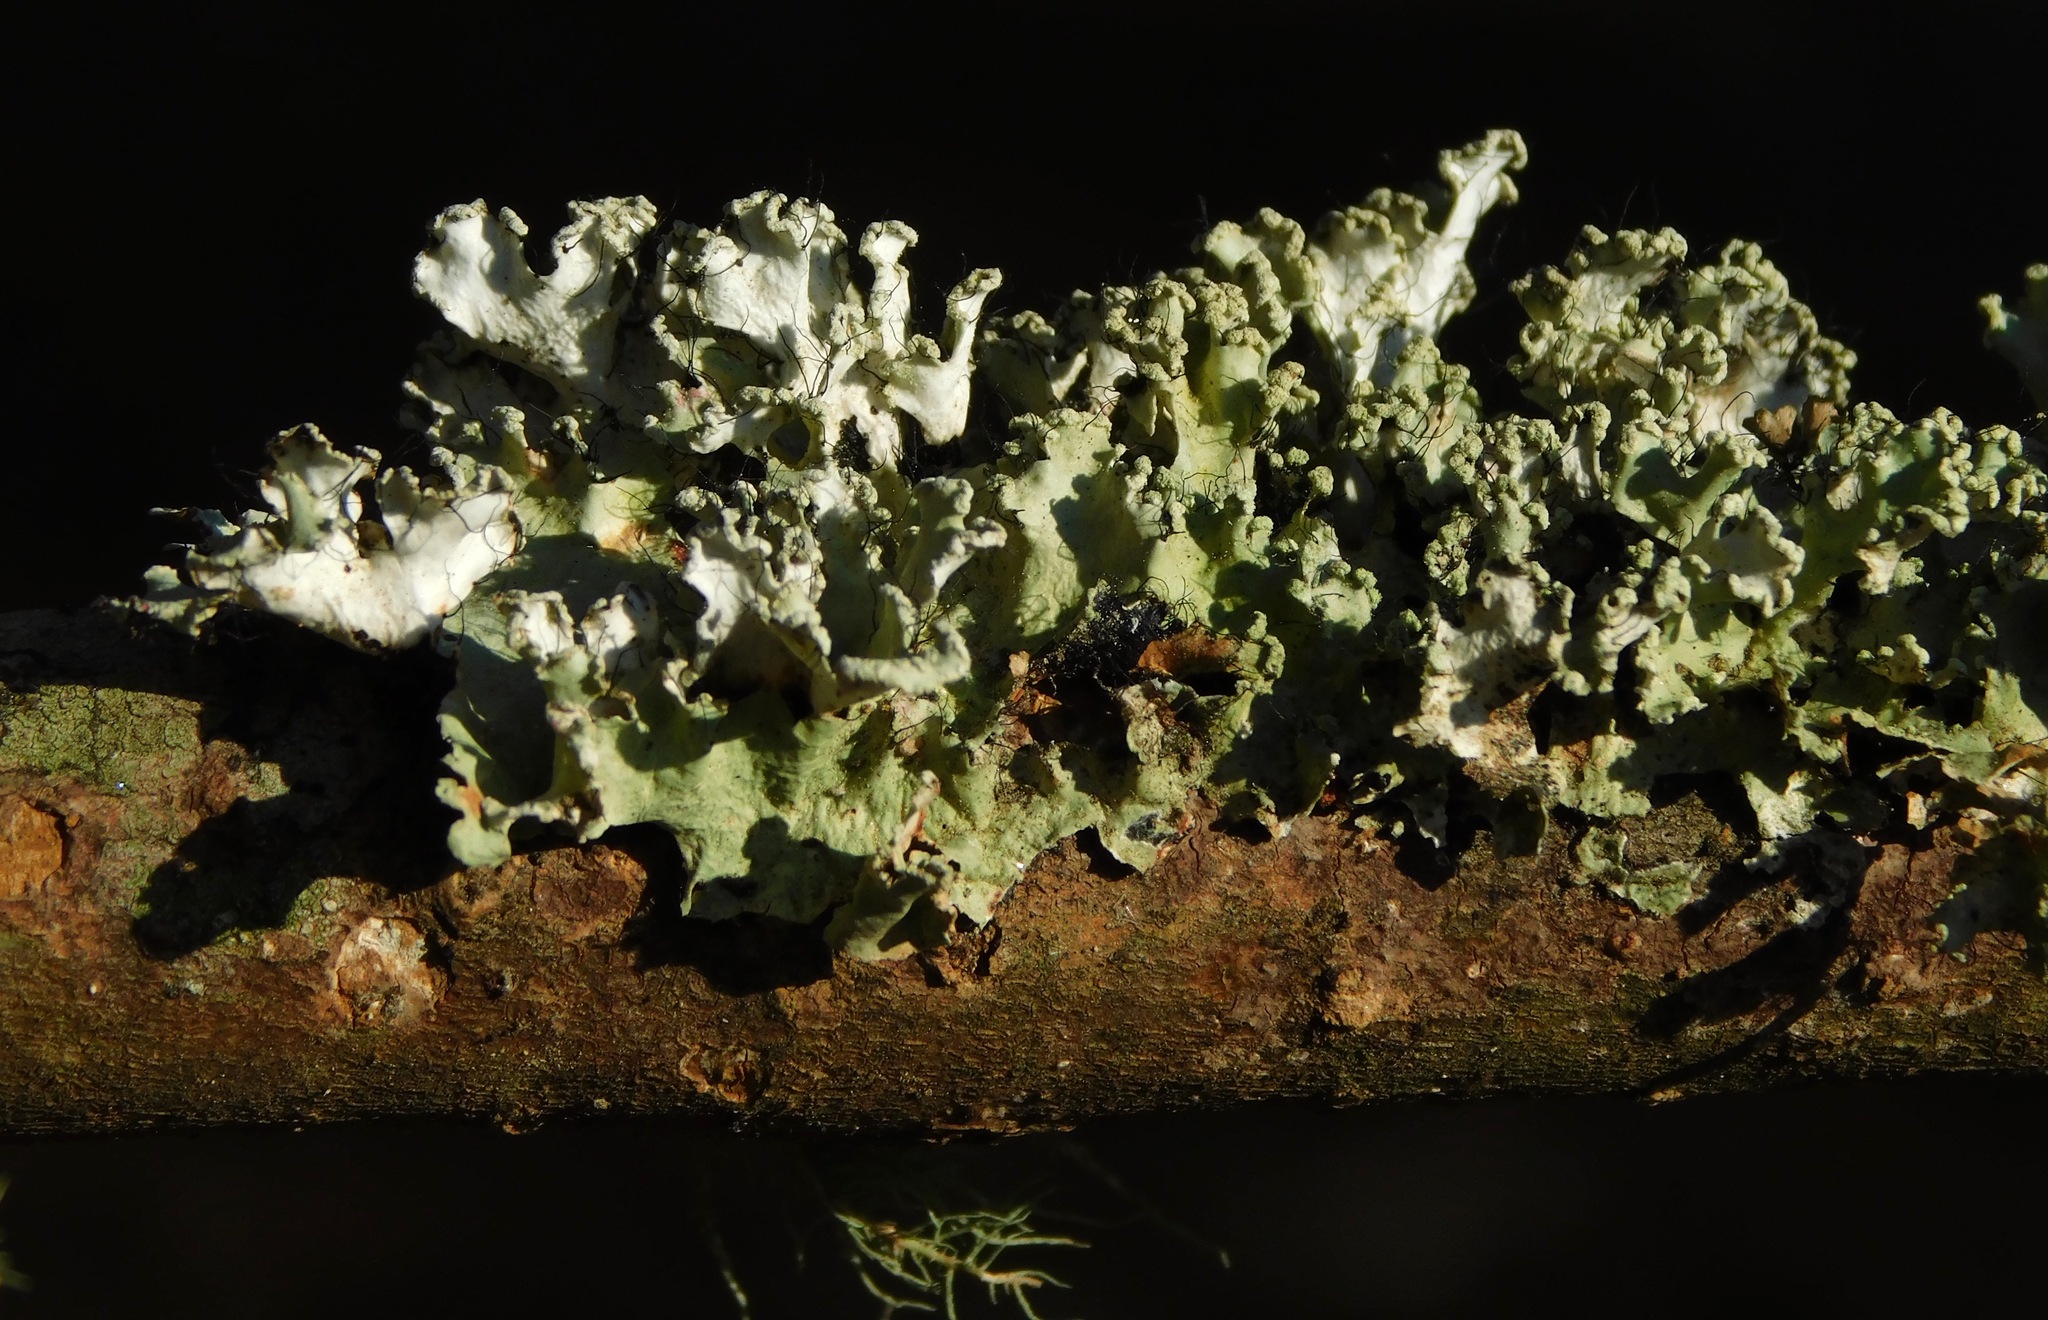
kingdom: Fungi
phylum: Ascomycota
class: Lecanoromycetes
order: Lecanorales
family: Parmeliaceae
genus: Parmotrema
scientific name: Parmotrema hypotropum
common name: Powdered ruffle lichen
